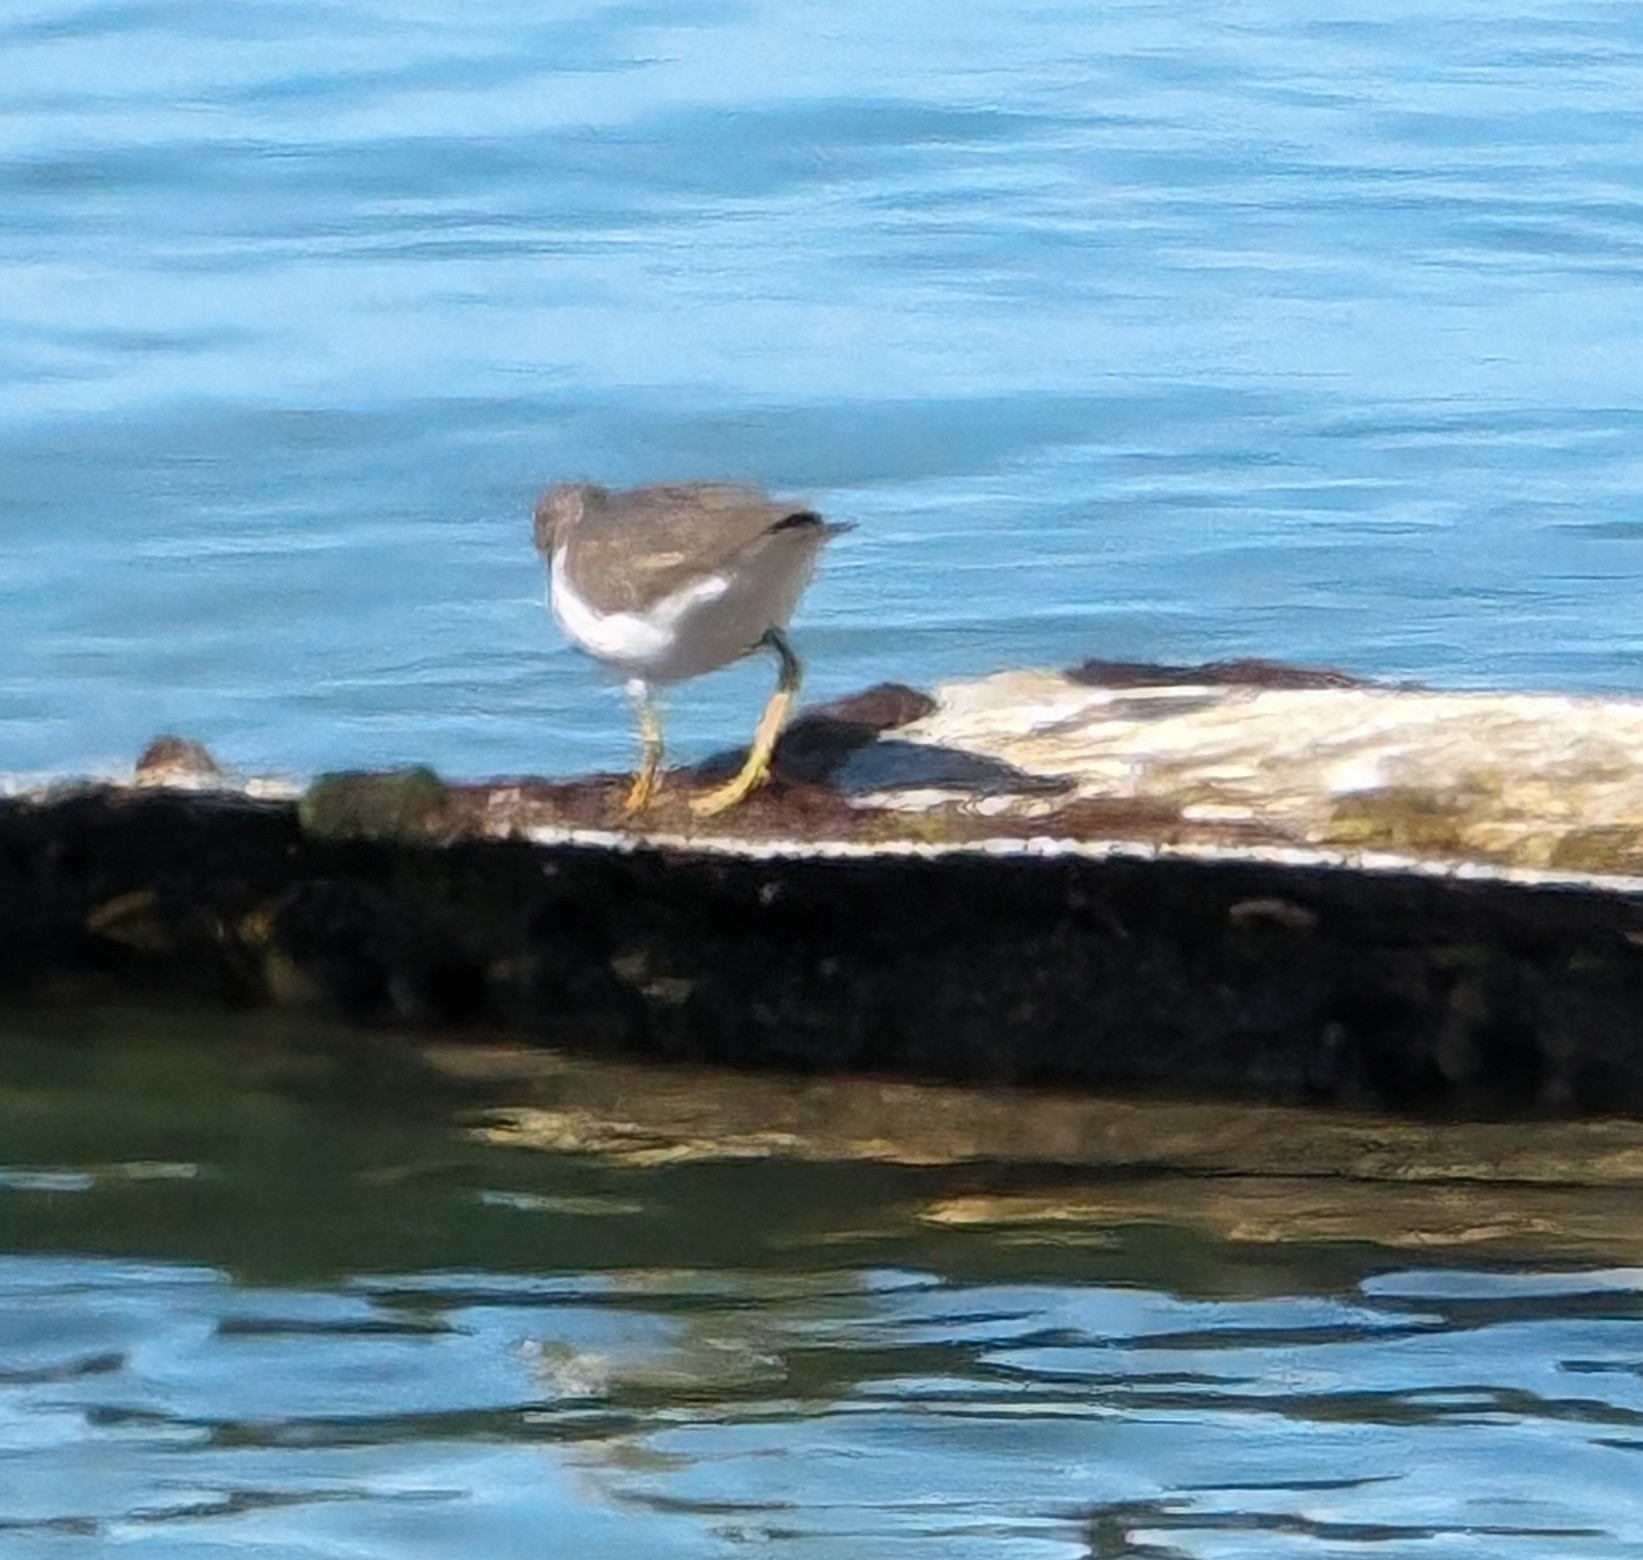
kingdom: Animalia
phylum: Chordata
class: Aves
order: Charadriiformes
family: Scolopacidae
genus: Actitis
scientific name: Actitis macularius
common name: Spotted sandpiper
